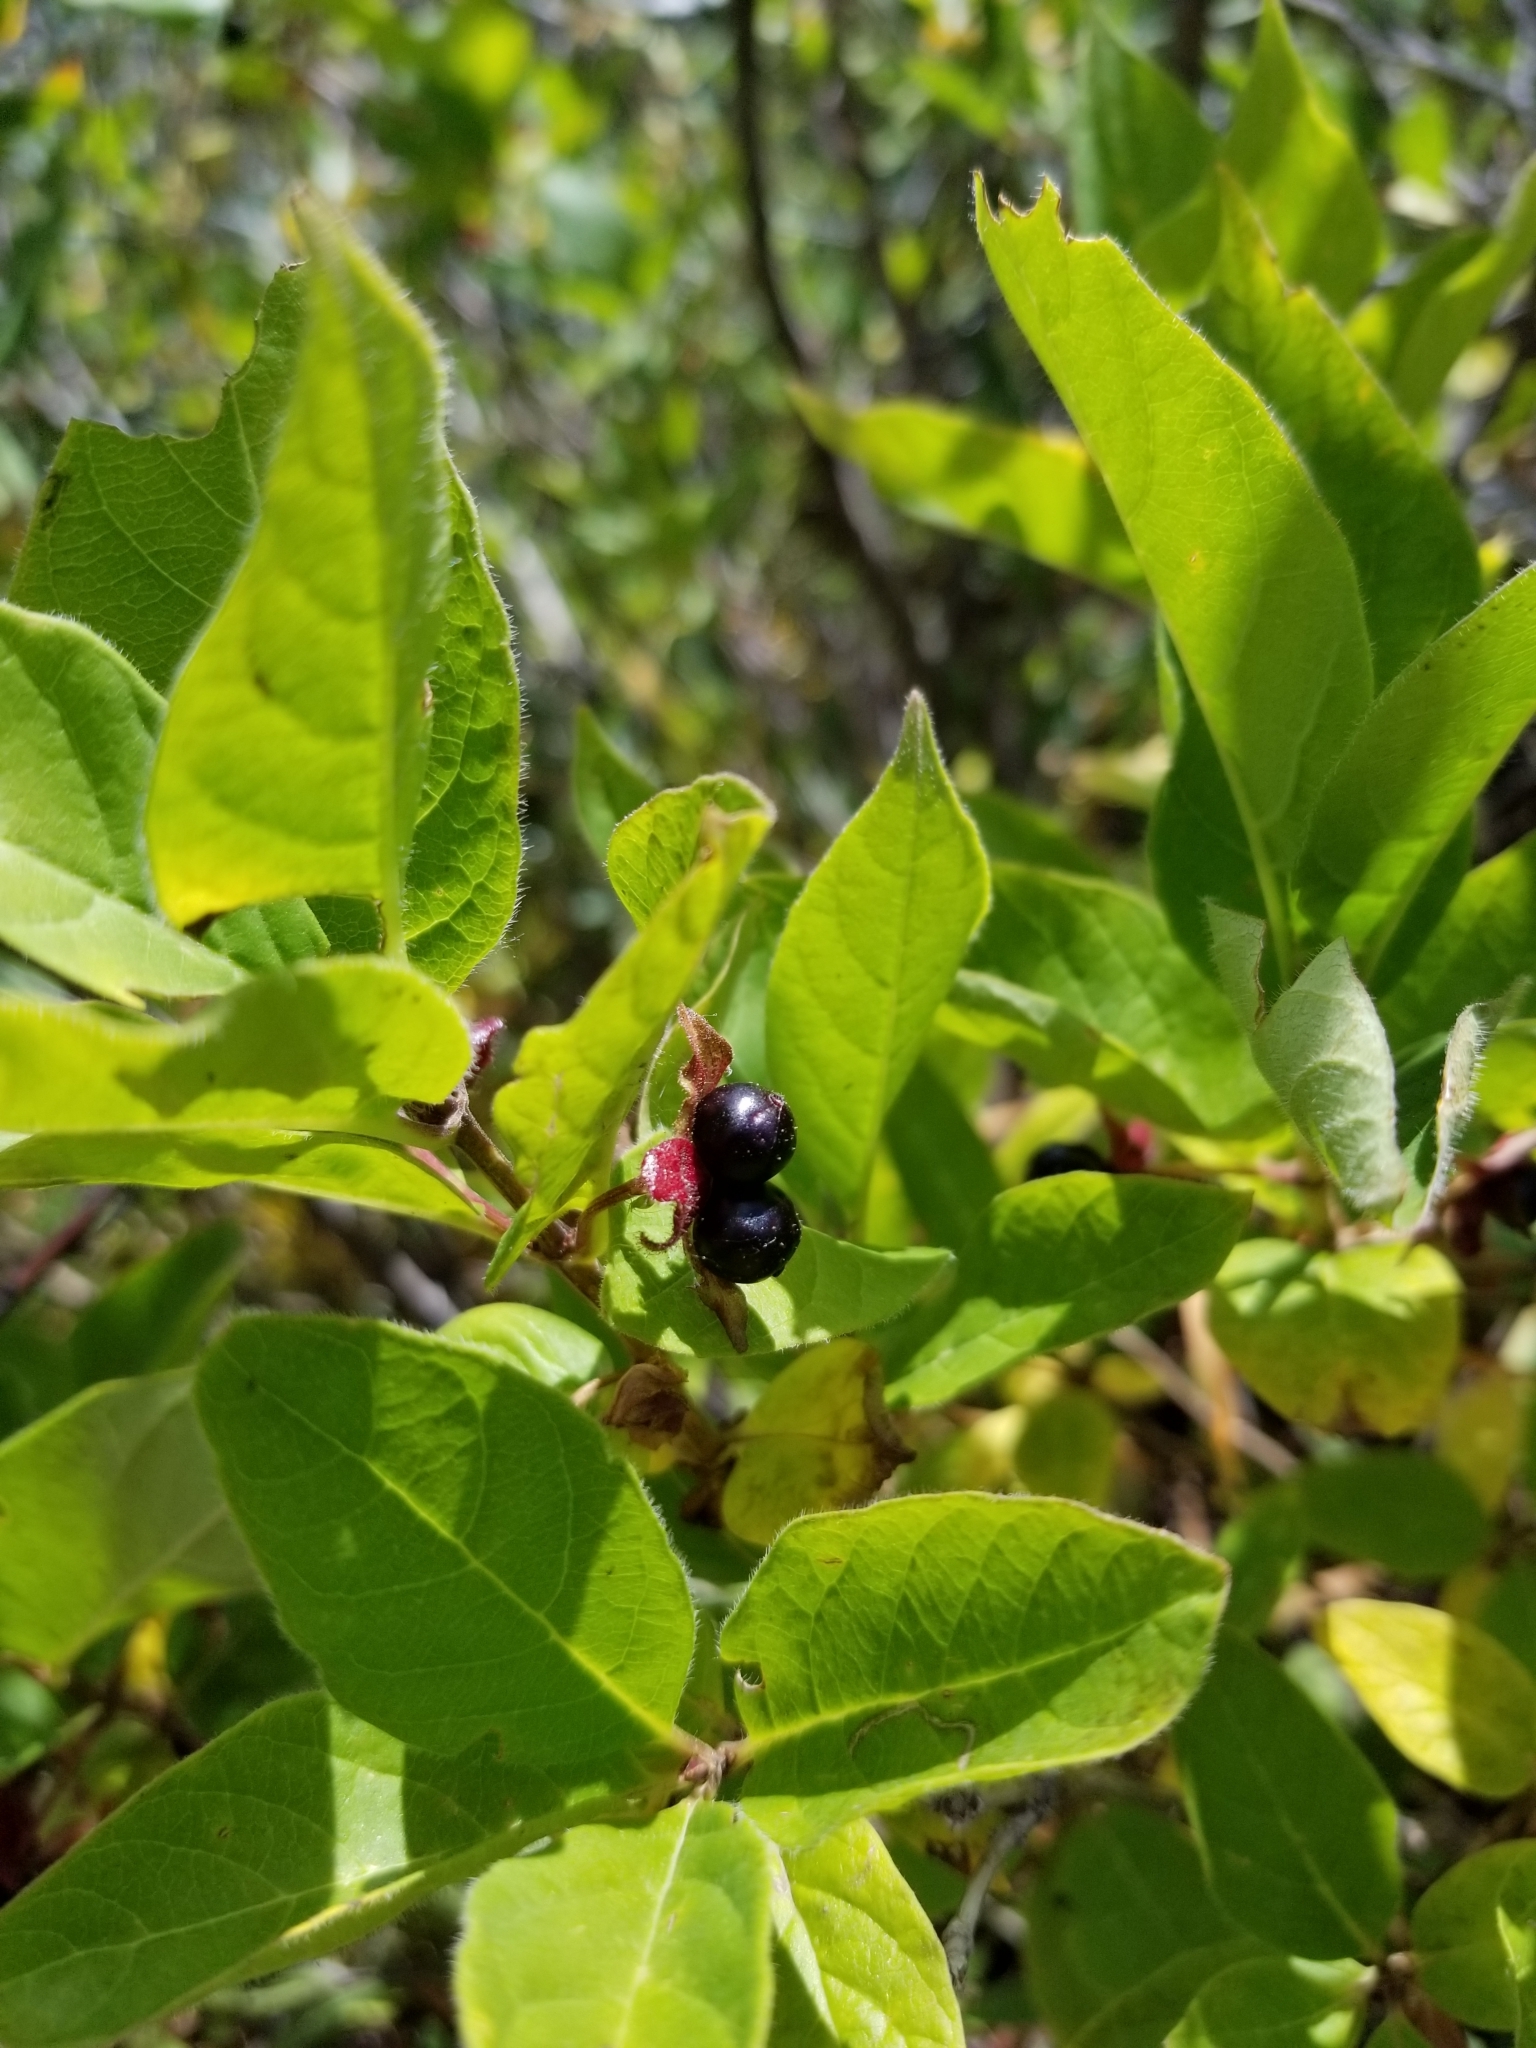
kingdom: Plantae
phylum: Tracheophyta
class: Magnoliopsida
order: Dipsacales
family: Caprifoliaceae
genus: Lonicera
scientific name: Lonicera involucrata
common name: Californian honeysuckle
